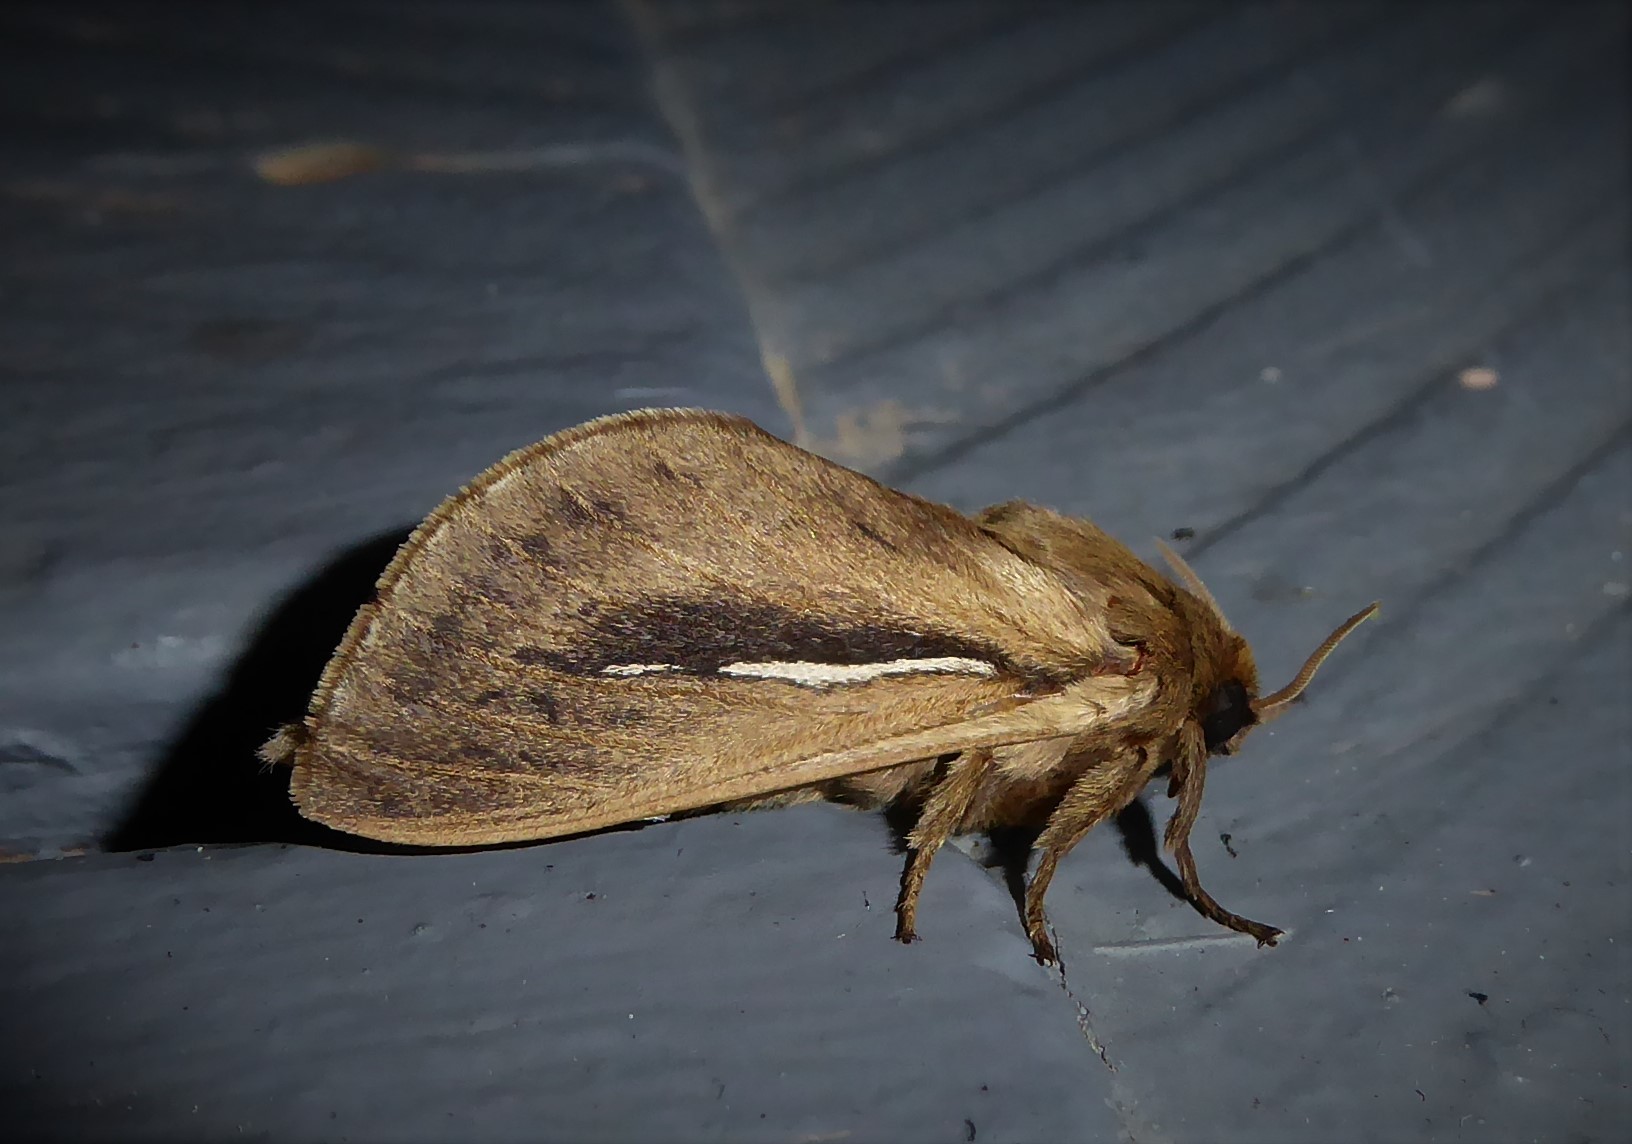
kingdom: Animalia
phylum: Arthropoda
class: Insecta
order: Lepidoptera
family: Hepialidae
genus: Wiseana
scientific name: Wiseana umbraculatus
